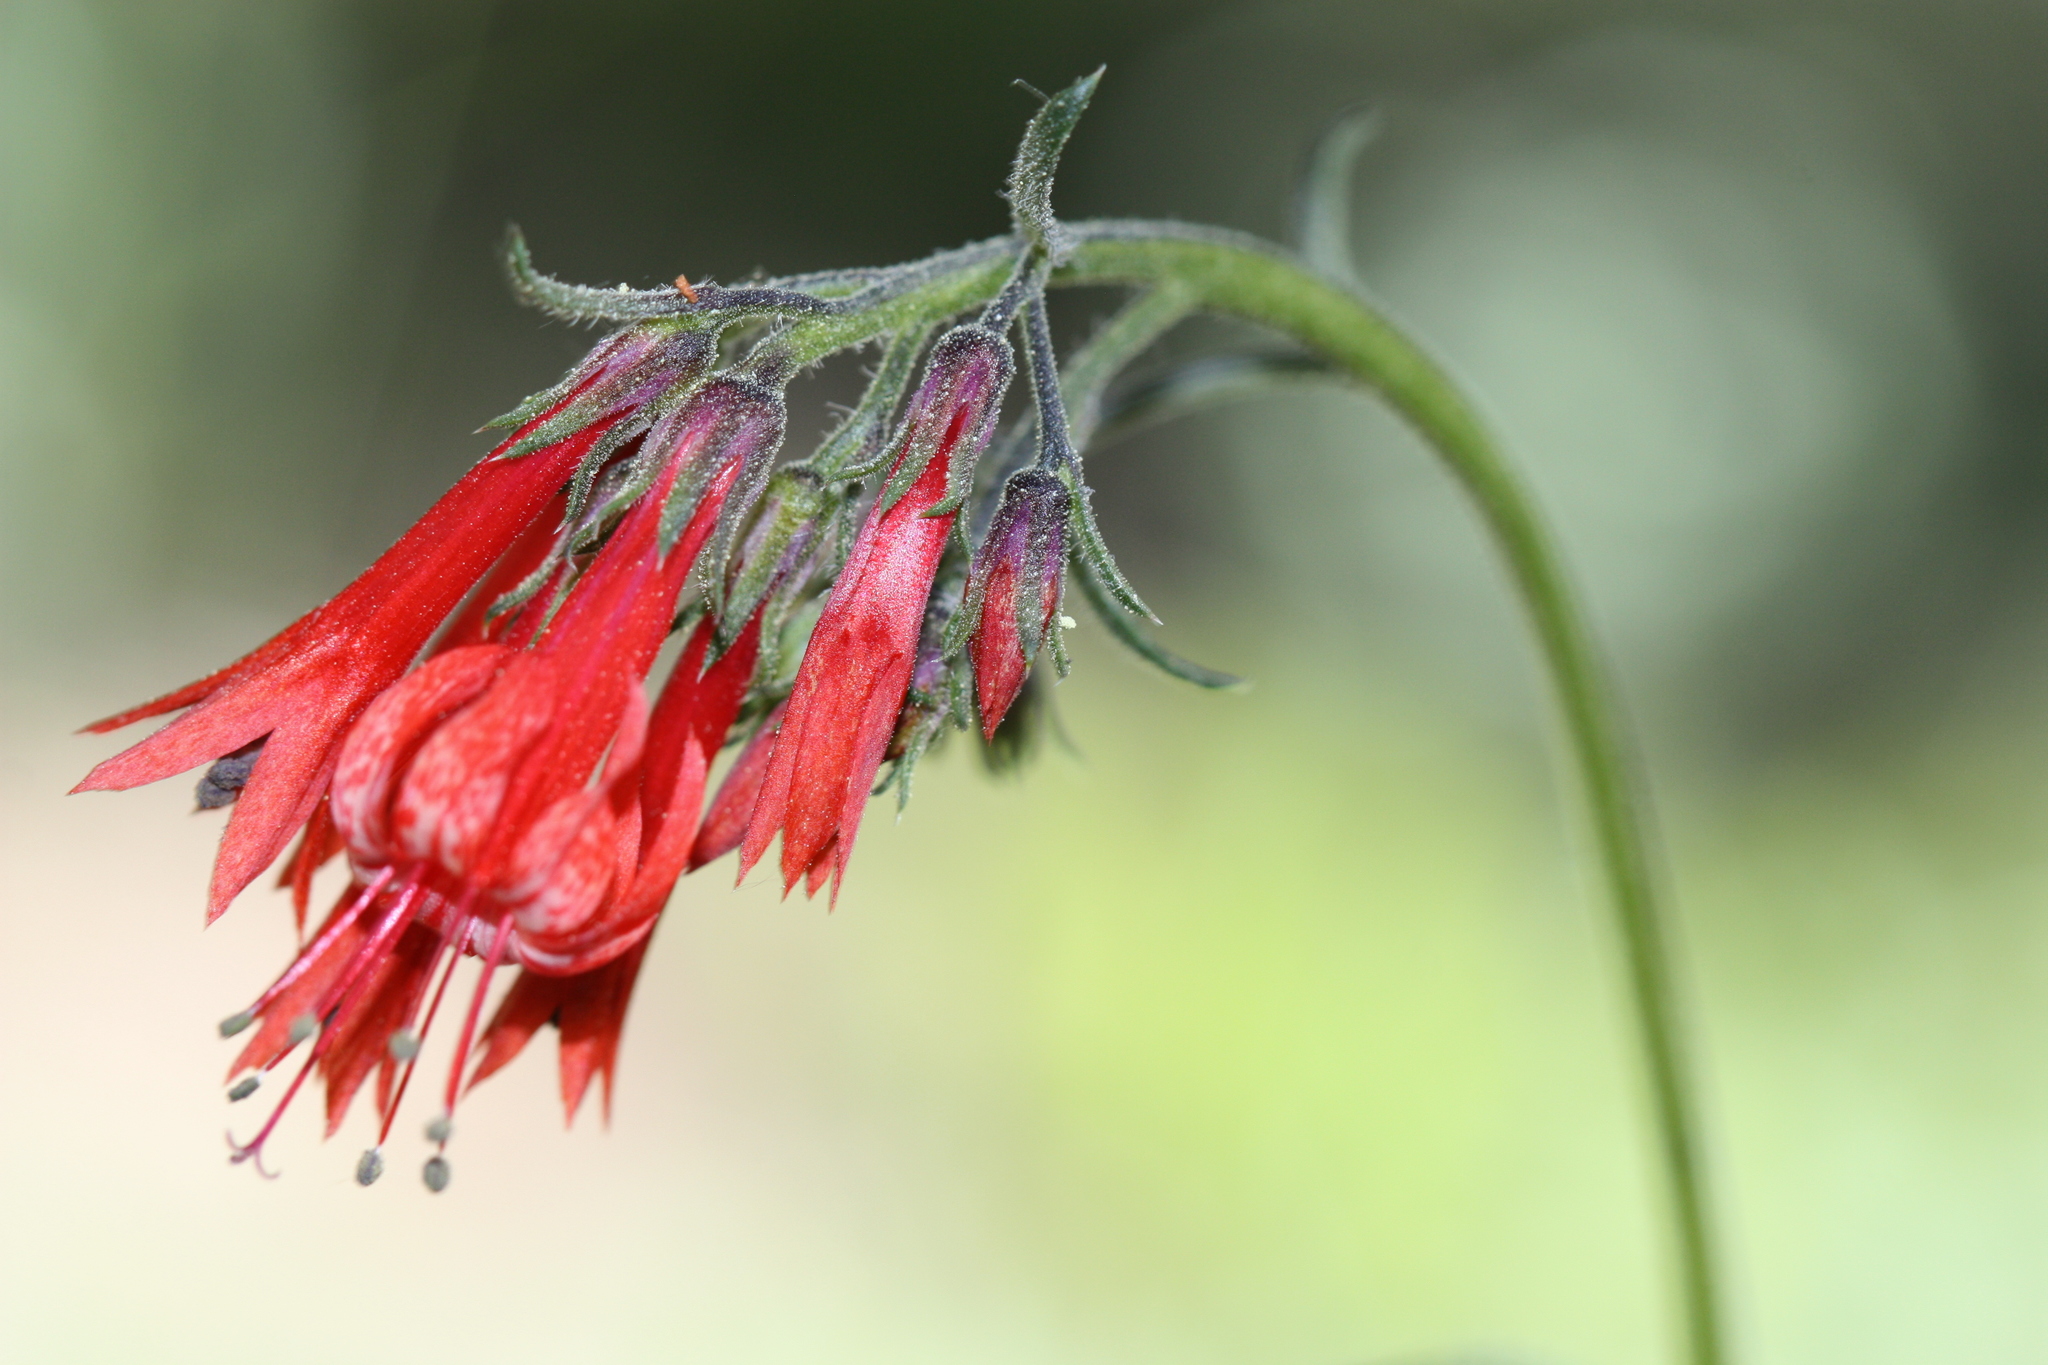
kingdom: Plantae
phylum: Tracheophyta
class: Magnoliopsida
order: Ericales
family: Polemoniaceae
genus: Ipomopsis
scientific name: Ipomopsis aggregata
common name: Scarlet gilia
